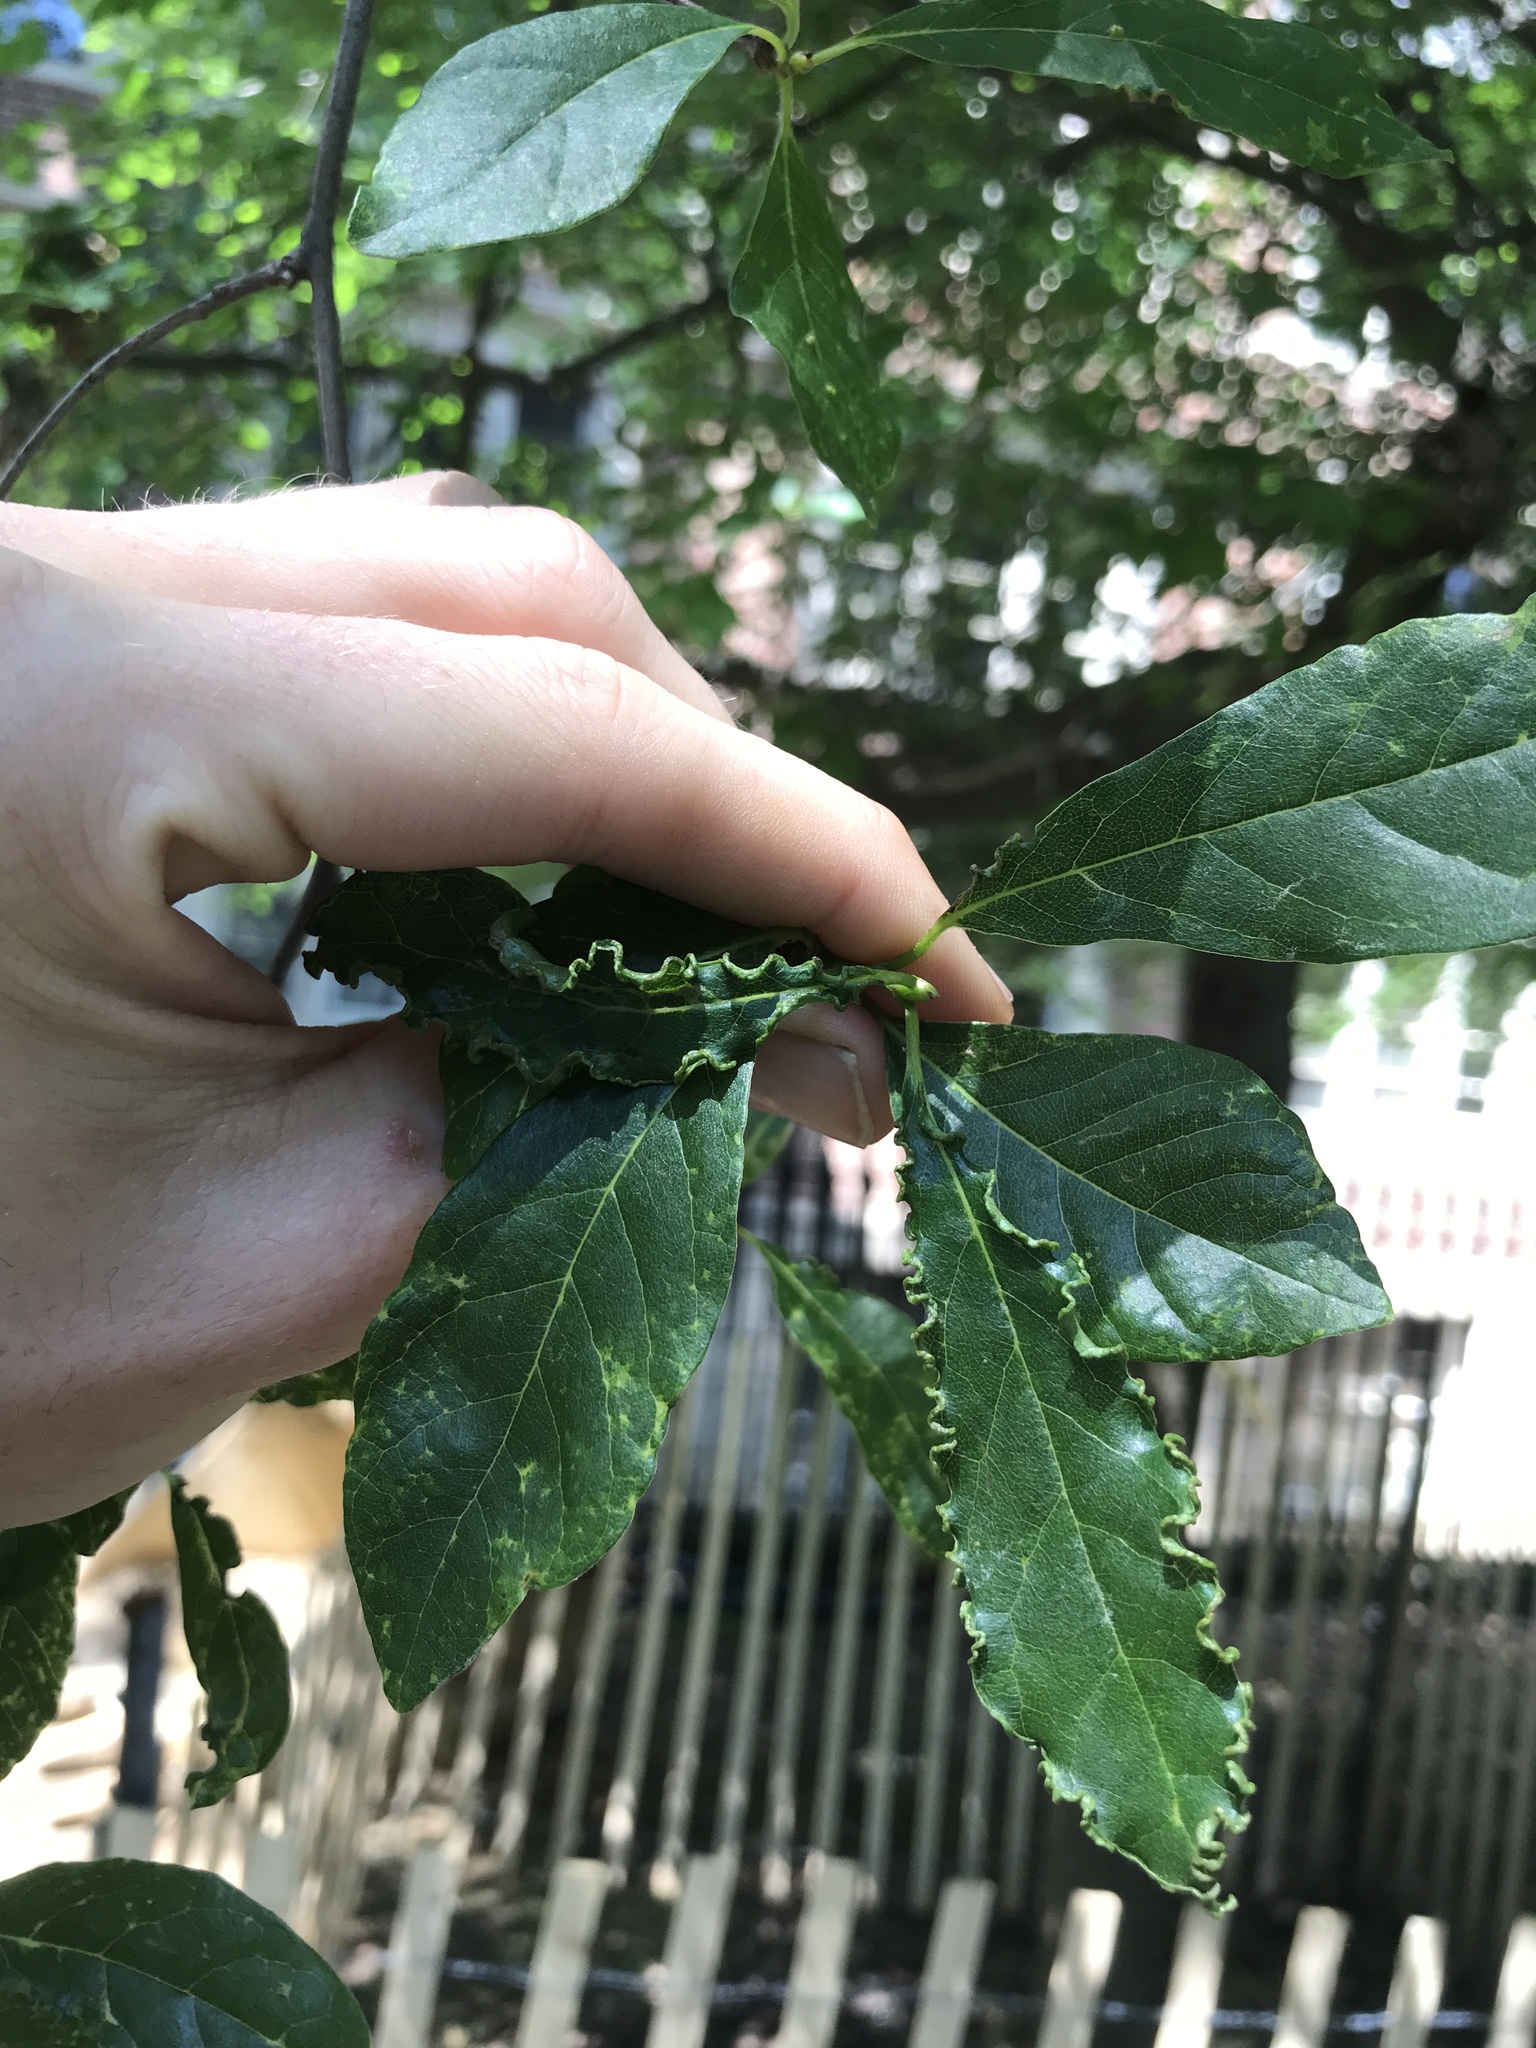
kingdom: Animalia
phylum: Arthropoda
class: Arachnida
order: Trombidiformes
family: Eriophyidae
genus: Aceria
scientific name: Aceria
